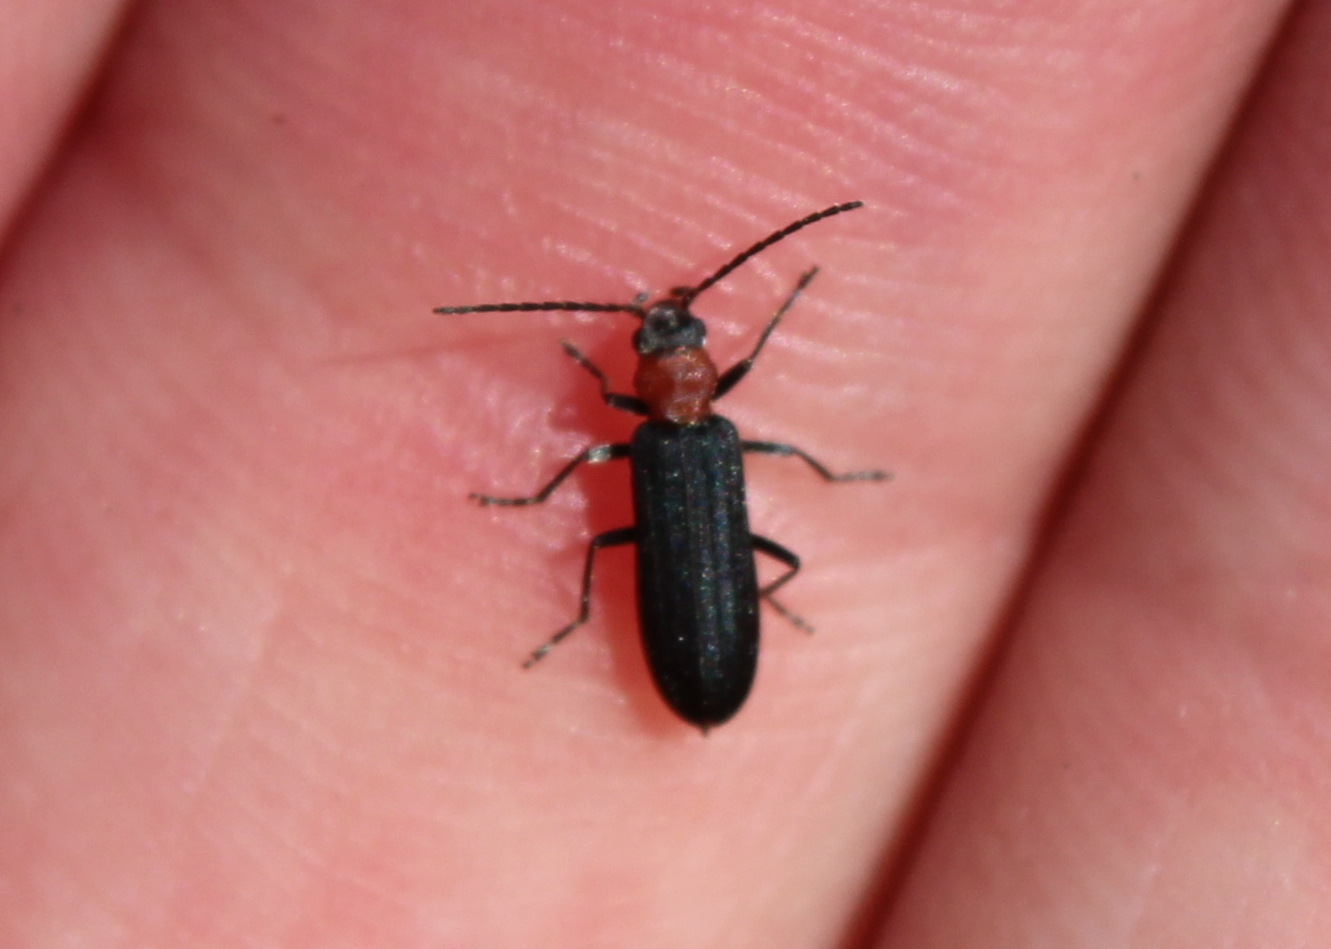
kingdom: Animalia
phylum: Arthropoda
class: Insecta
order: Coleoptera
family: Oedemeridae
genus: Ischnomera
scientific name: Ischnomera
